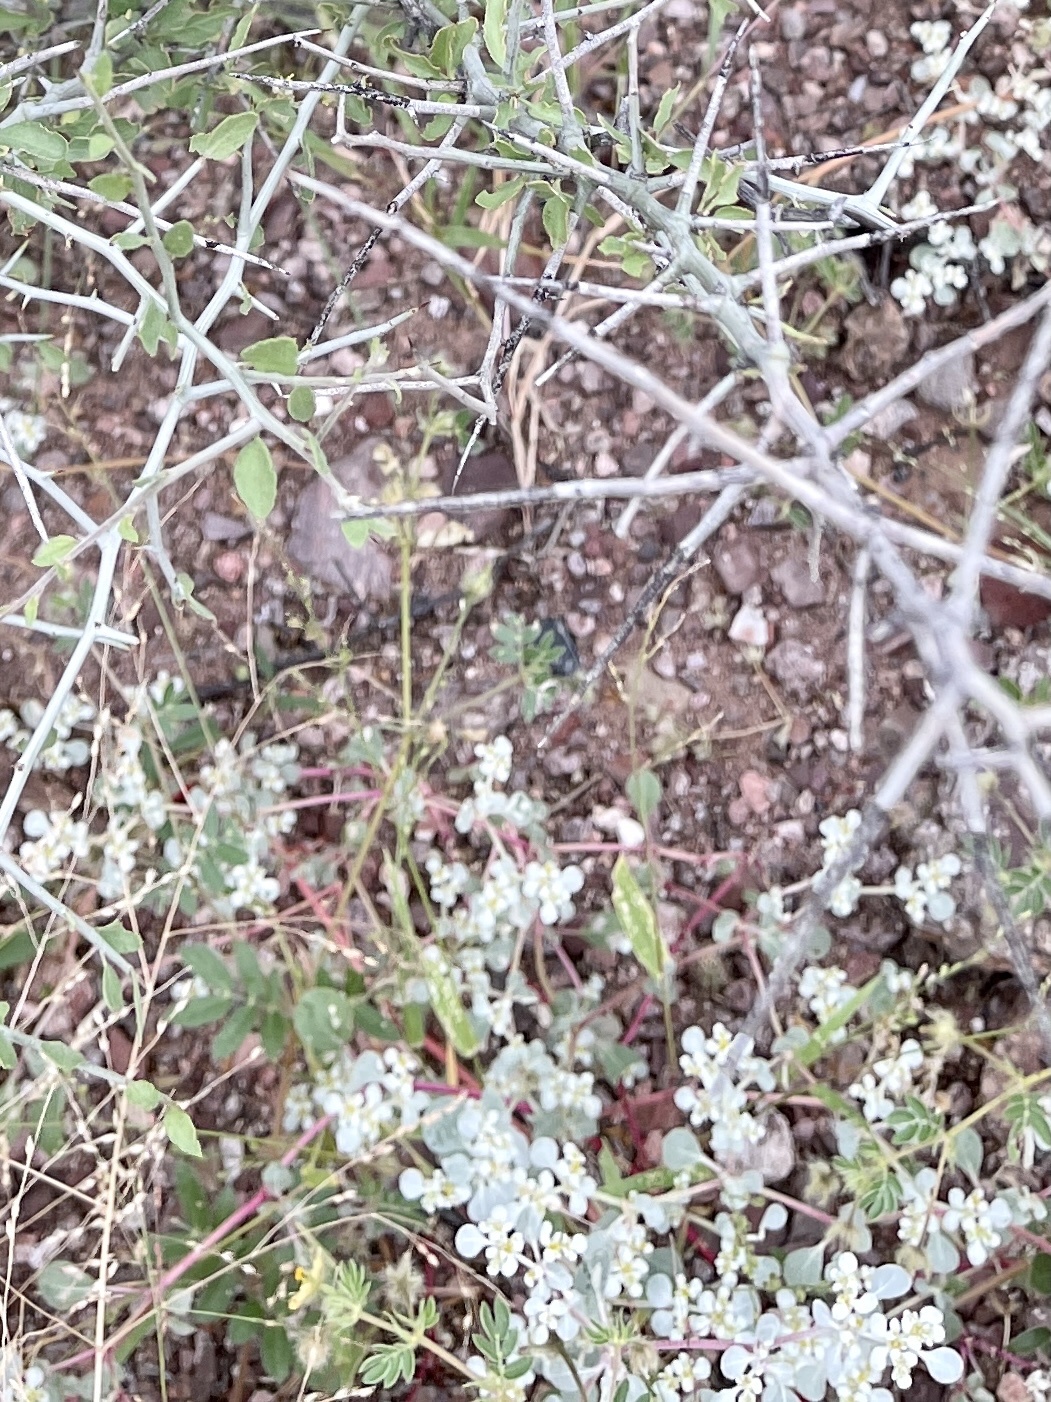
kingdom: Plantae
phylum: Tracheophyta
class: Magnoliopsida
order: Caryophyllales
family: Amaranthaceae
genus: Tidestromia
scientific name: Tidestromia lanuginosa
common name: Woolly tidestromia
